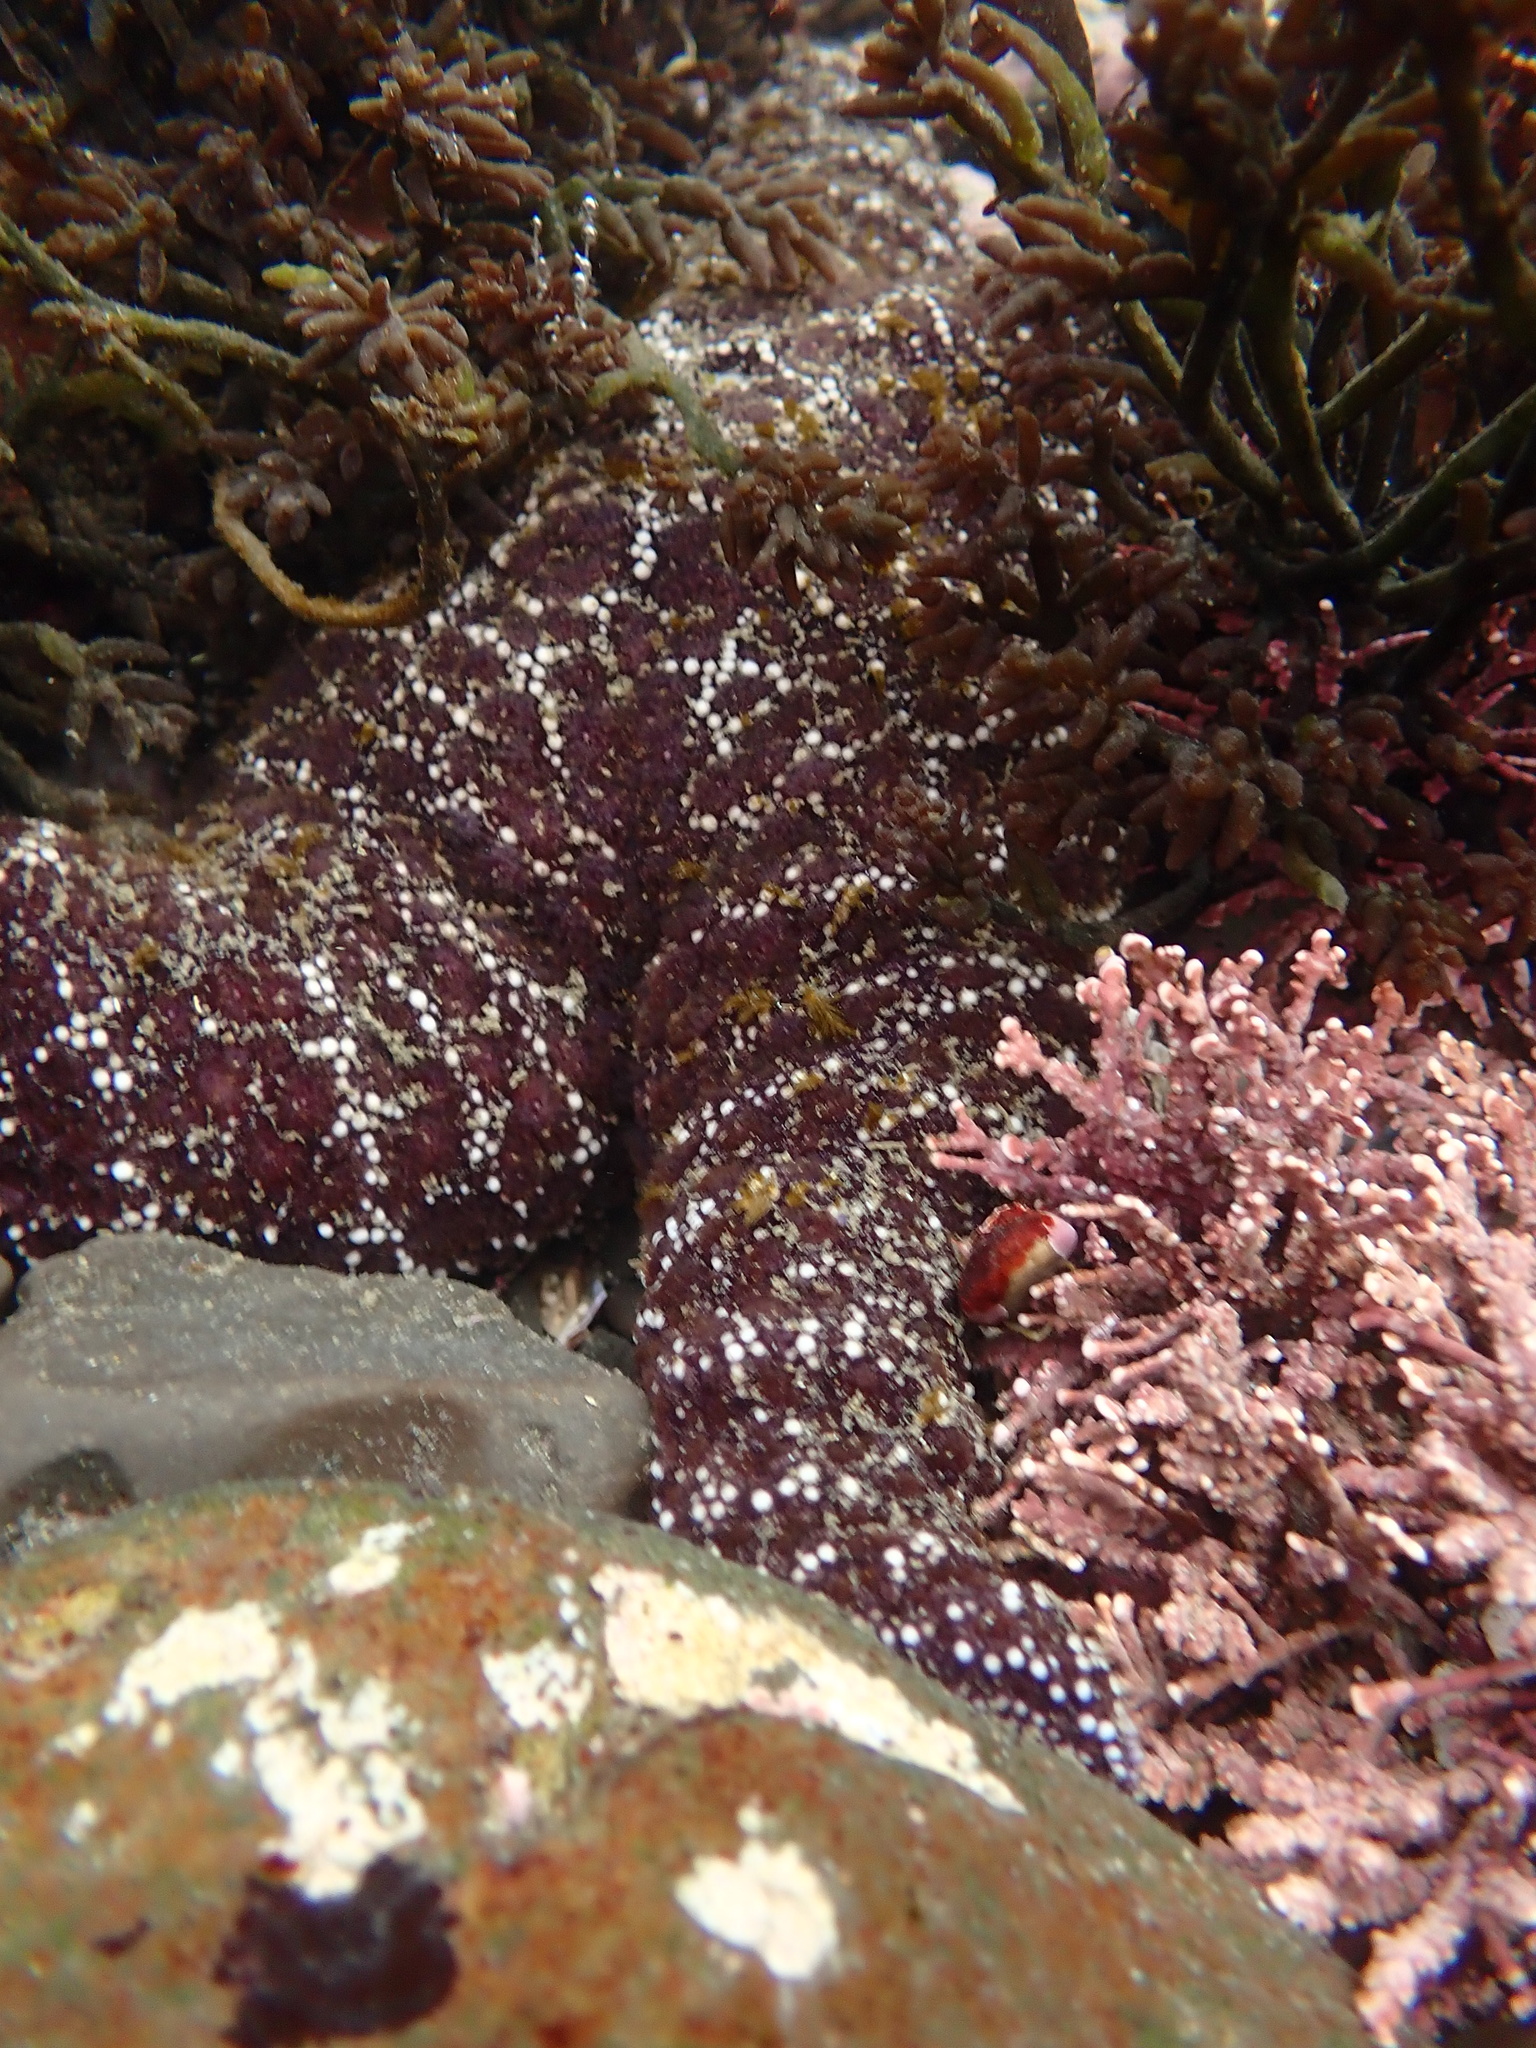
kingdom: Animalia
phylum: Echinodermata
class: Asteroidea
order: Forcipulatida
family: Asteriidae
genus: Pisaster
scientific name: Pisaster ochraceus
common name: Ochre stars
